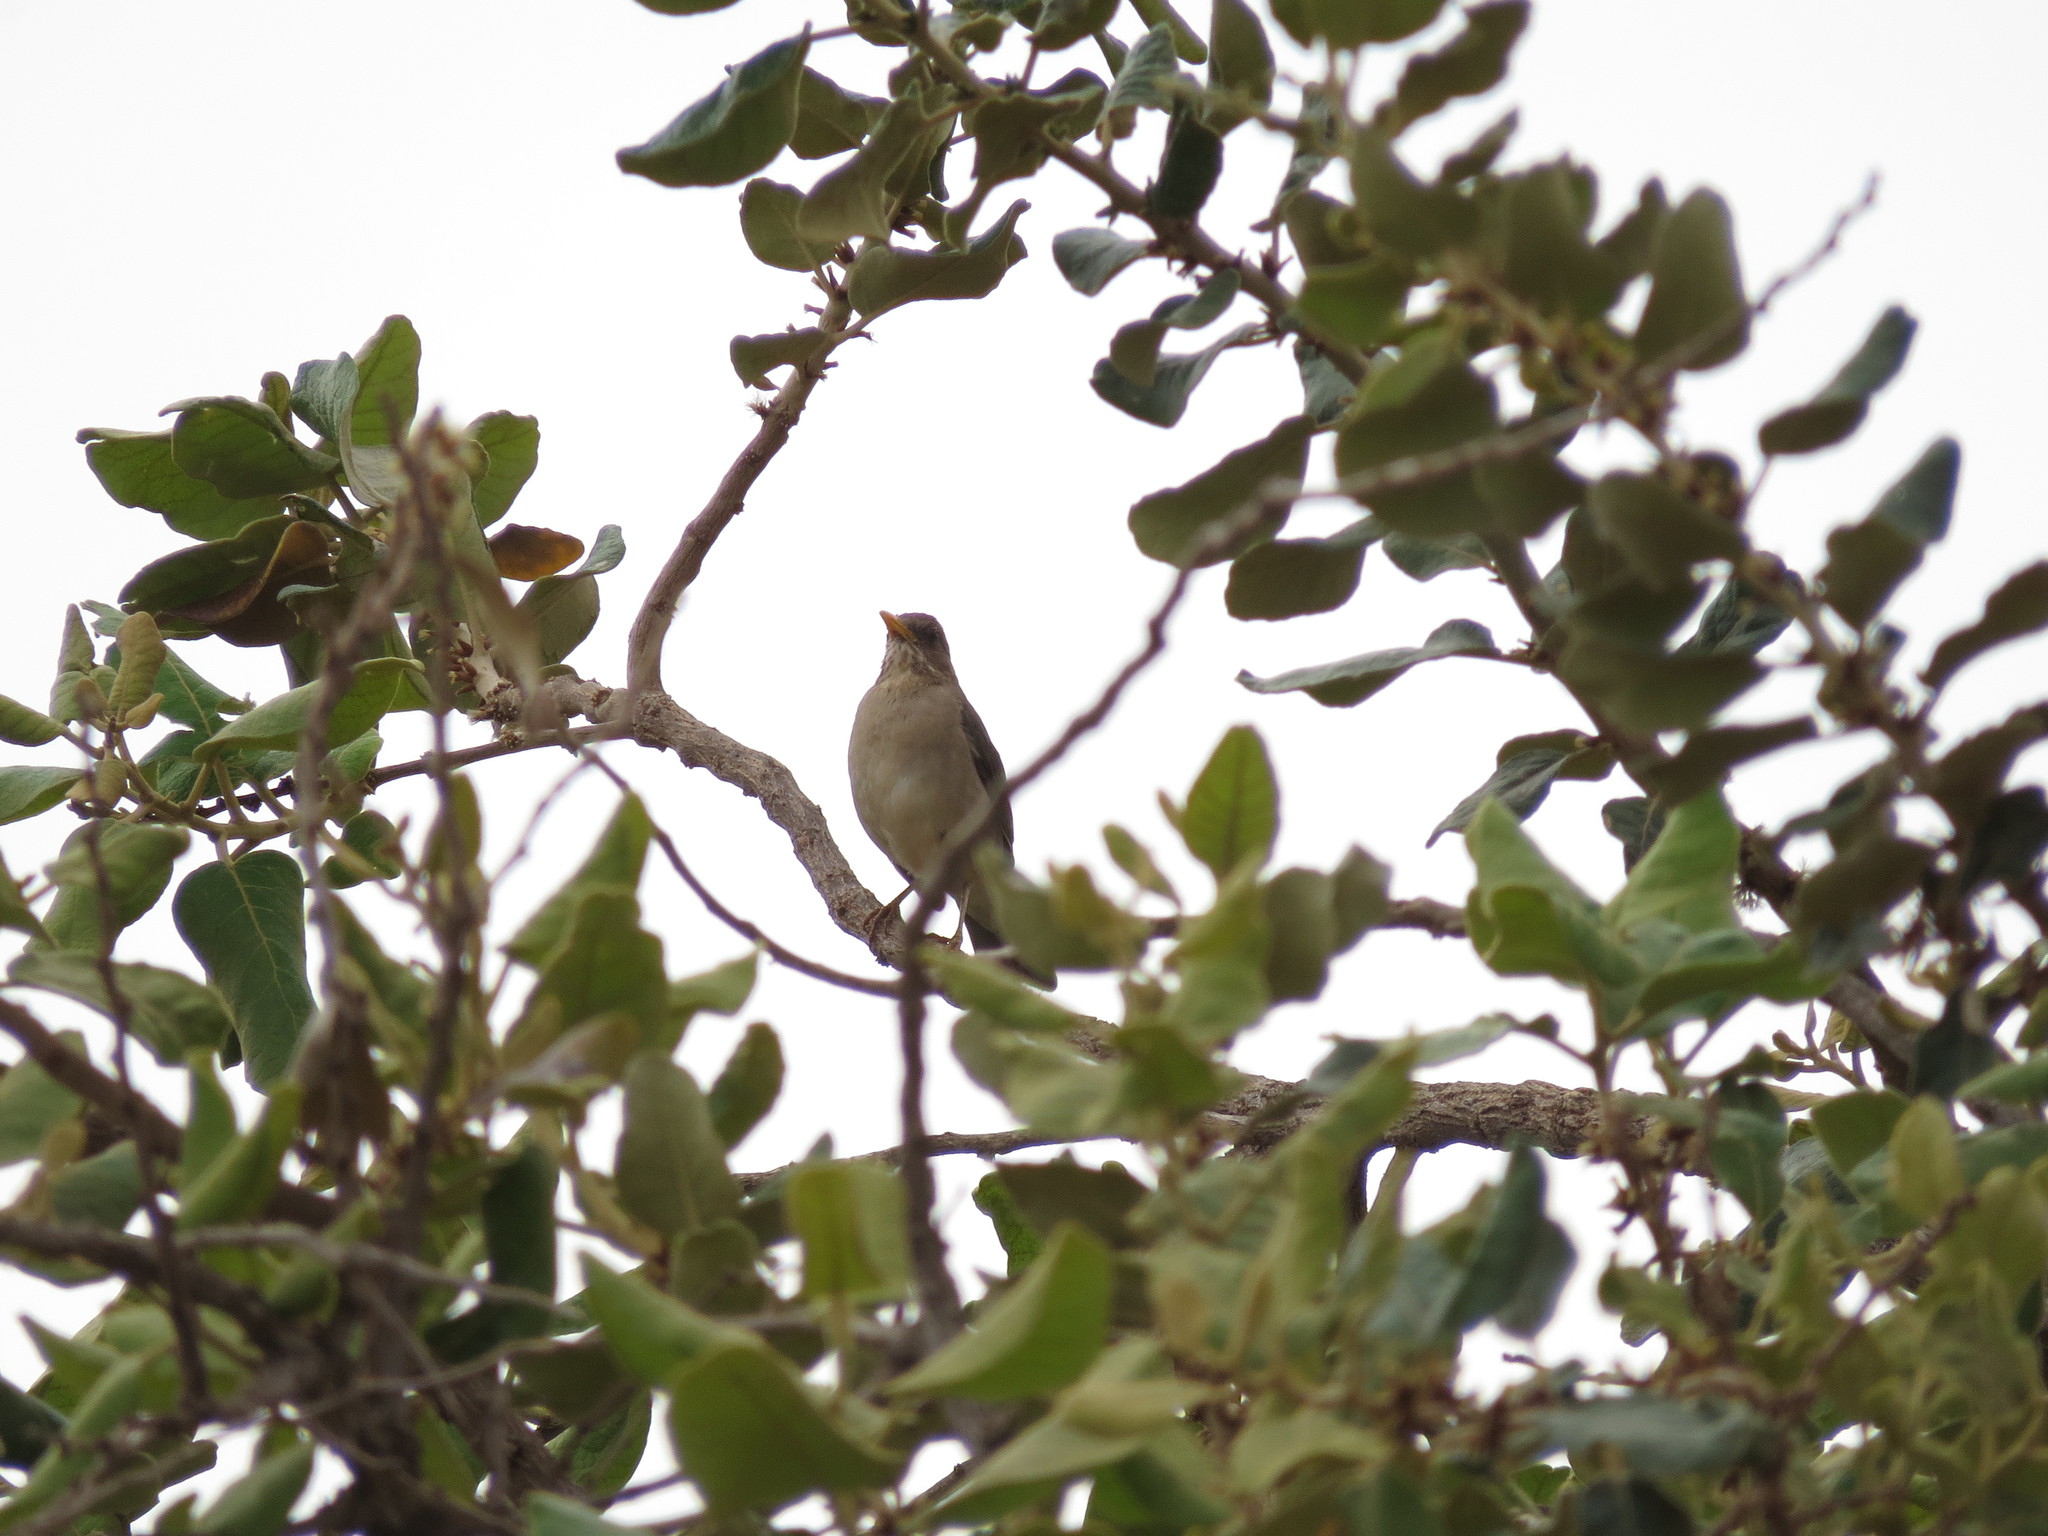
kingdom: Animalia
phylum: Chordata
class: Aves
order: Passeriformes
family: Turdidae
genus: Turdus
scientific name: Turdus amaurochalinus
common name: Creamy-bellied thrush
